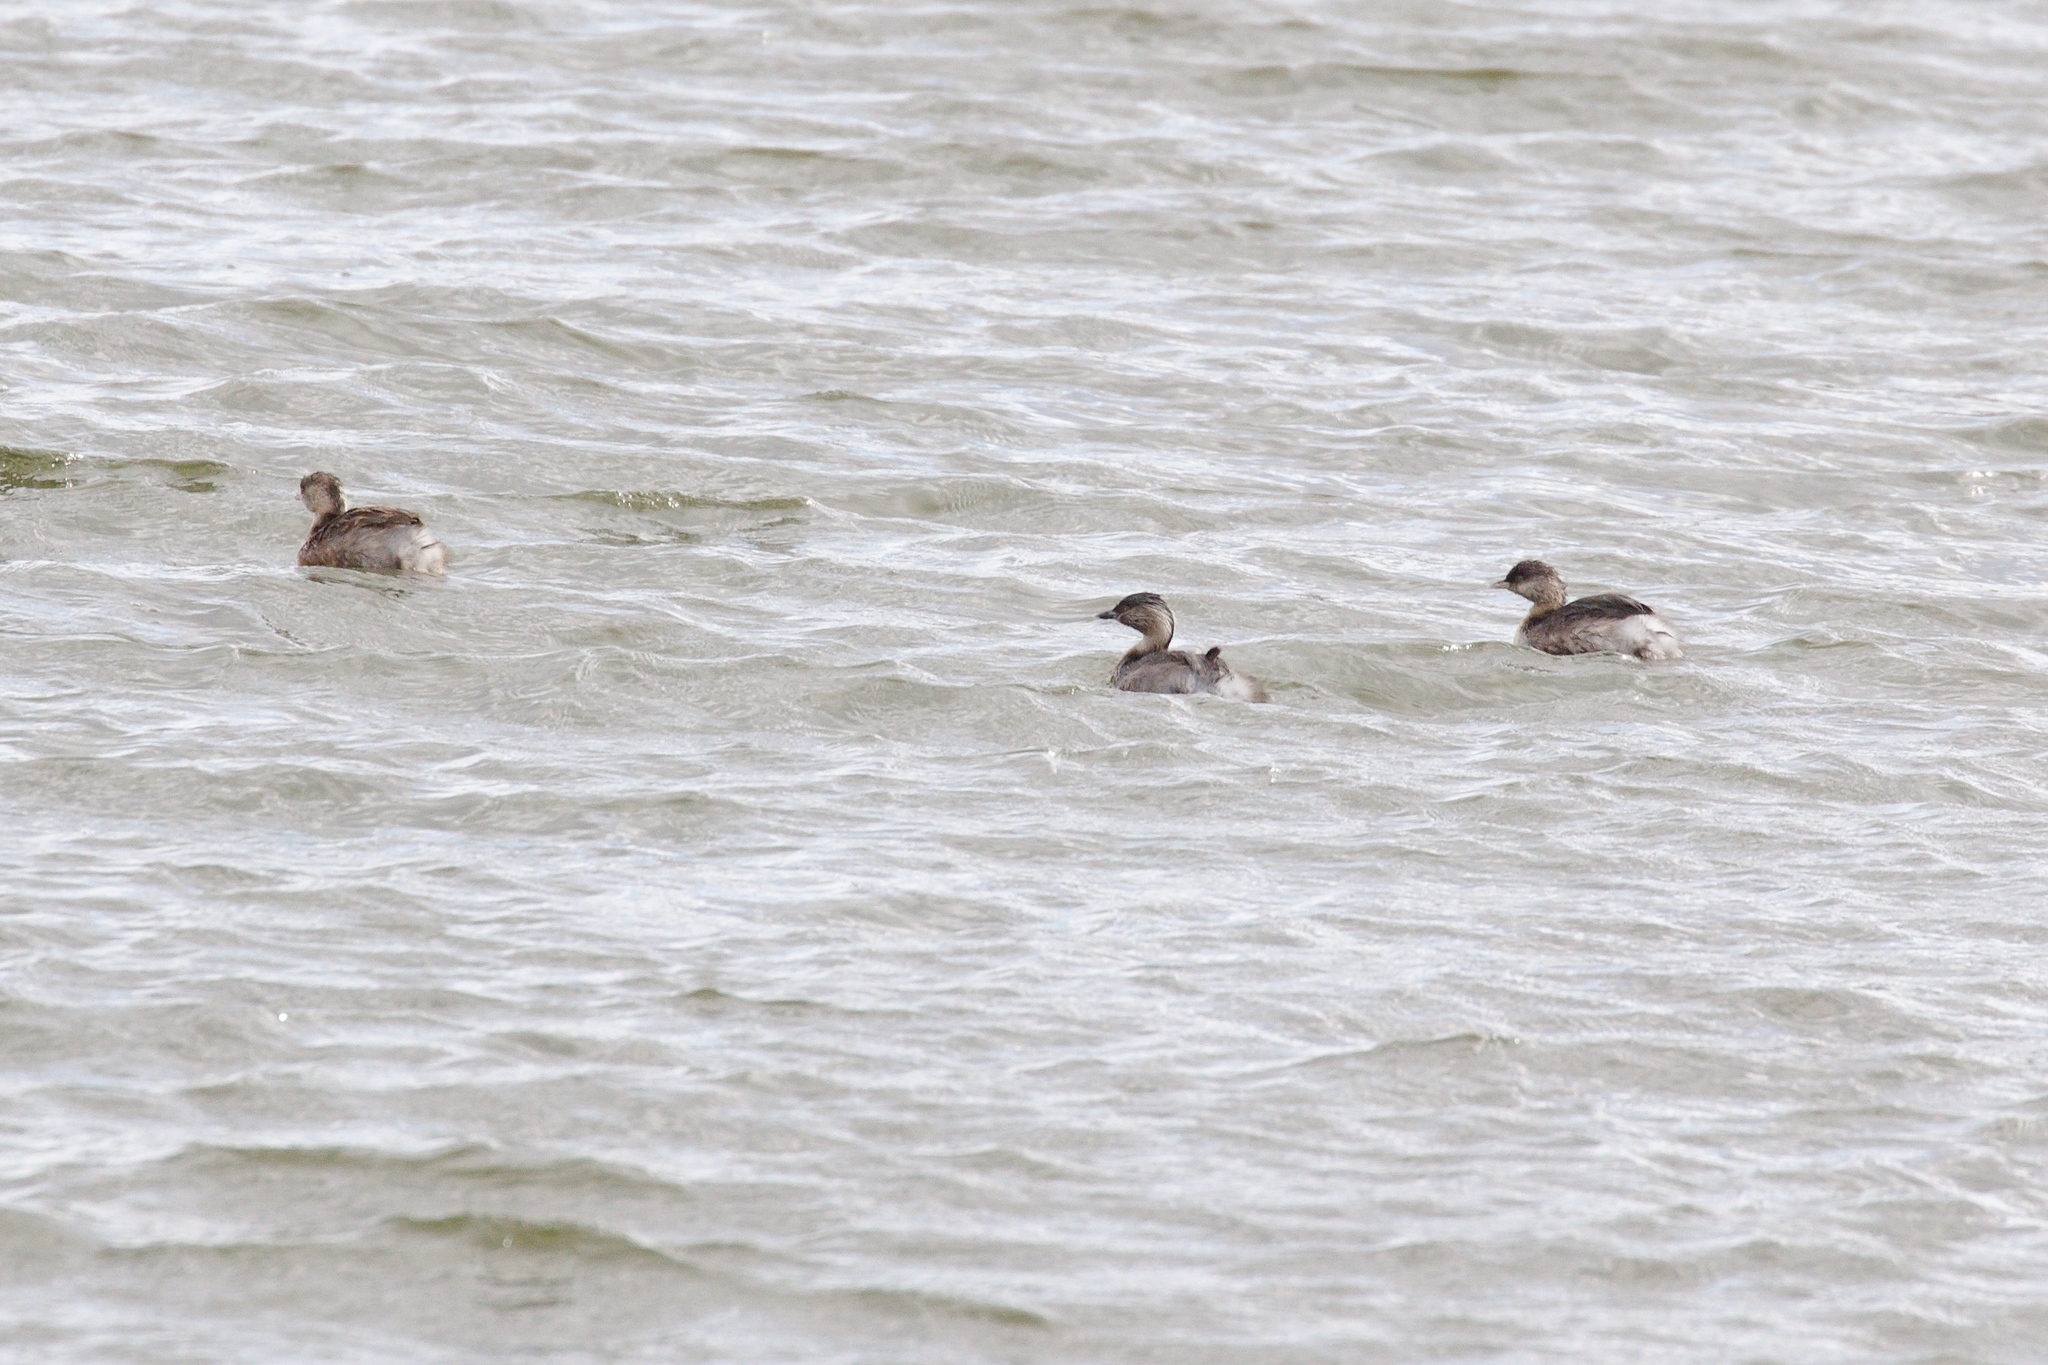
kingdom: Animalia
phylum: Chordata
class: Aves
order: Podicipediformes
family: Podicipedidae
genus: Poliocephalus
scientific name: Poliocephalus poliocephalus
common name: Hoary-headed grebe
